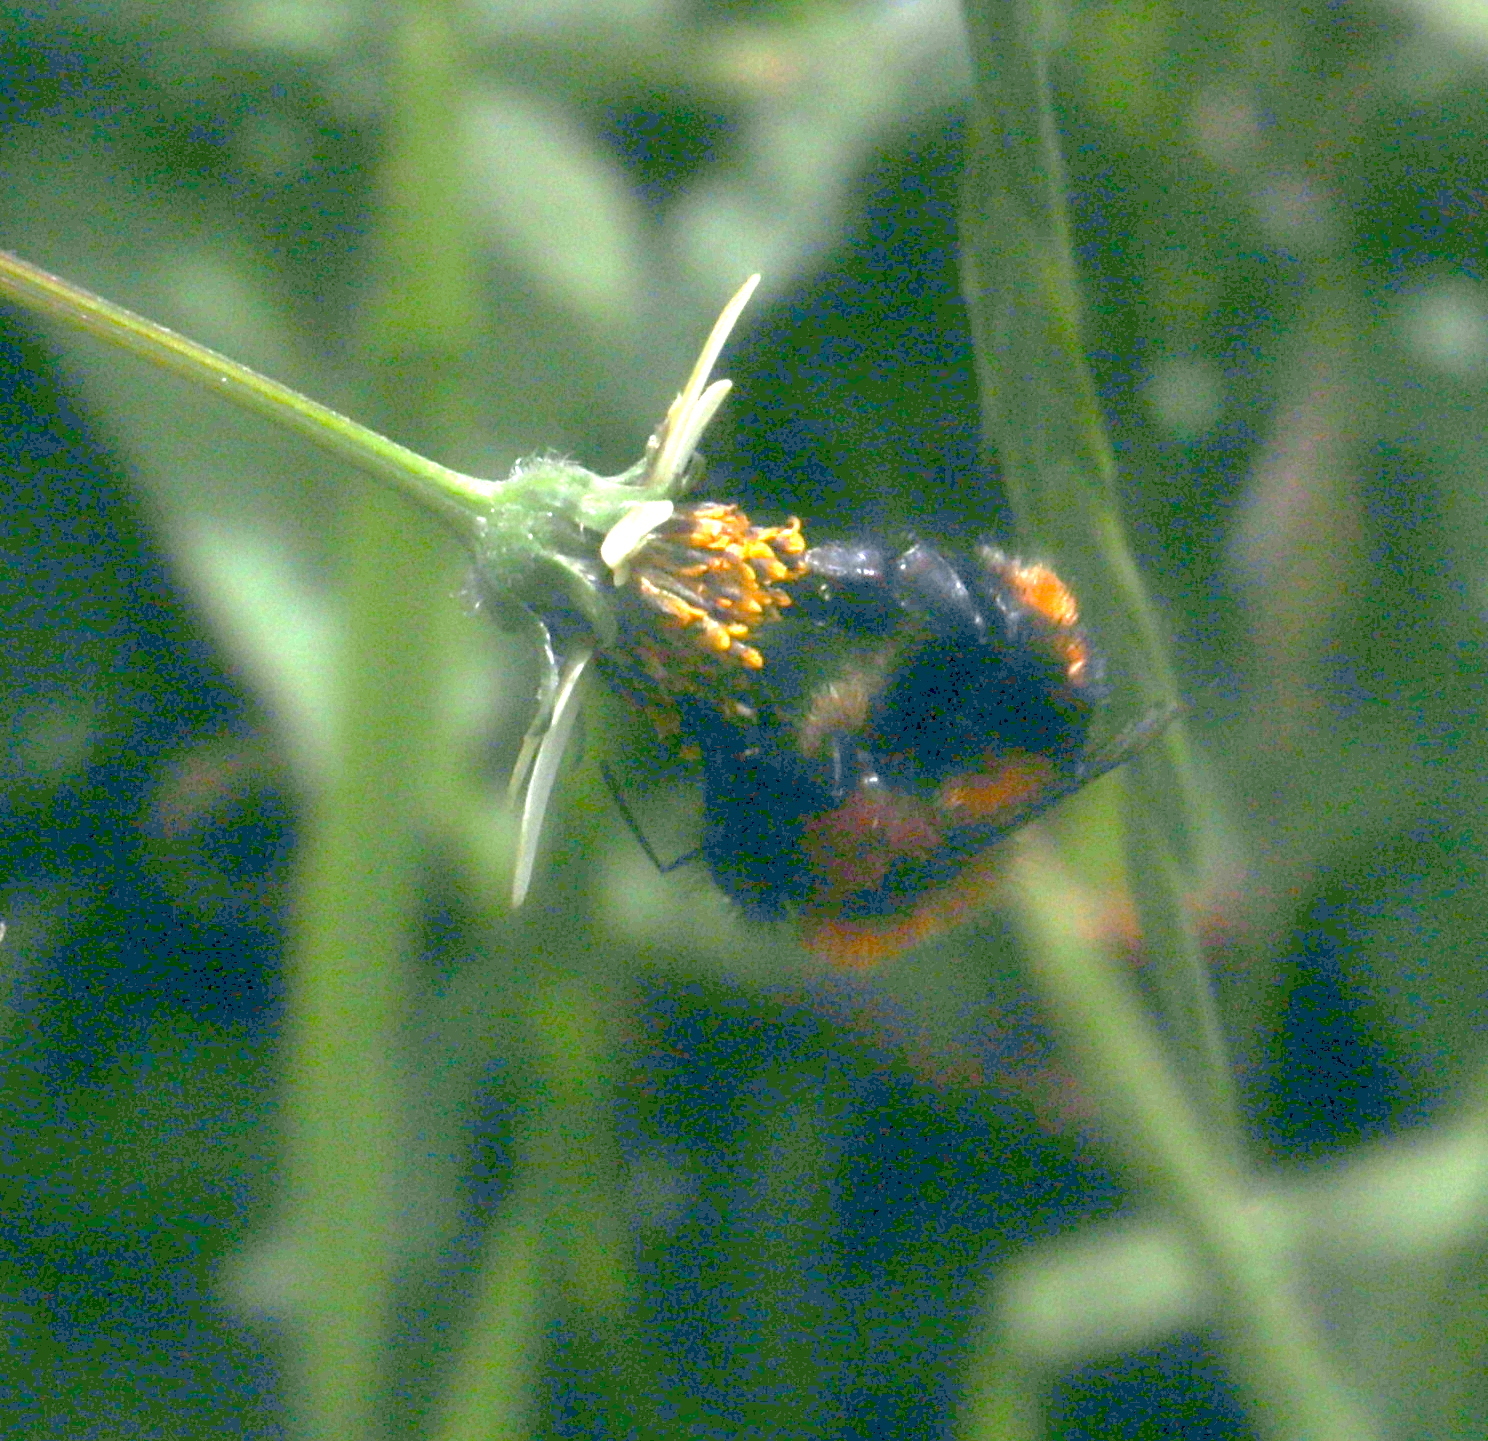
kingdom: Animalia
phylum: Arthropoda
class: Insecta
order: Hymenoptera
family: Apidae
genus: Bombus
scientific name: Bombus rubicundus
